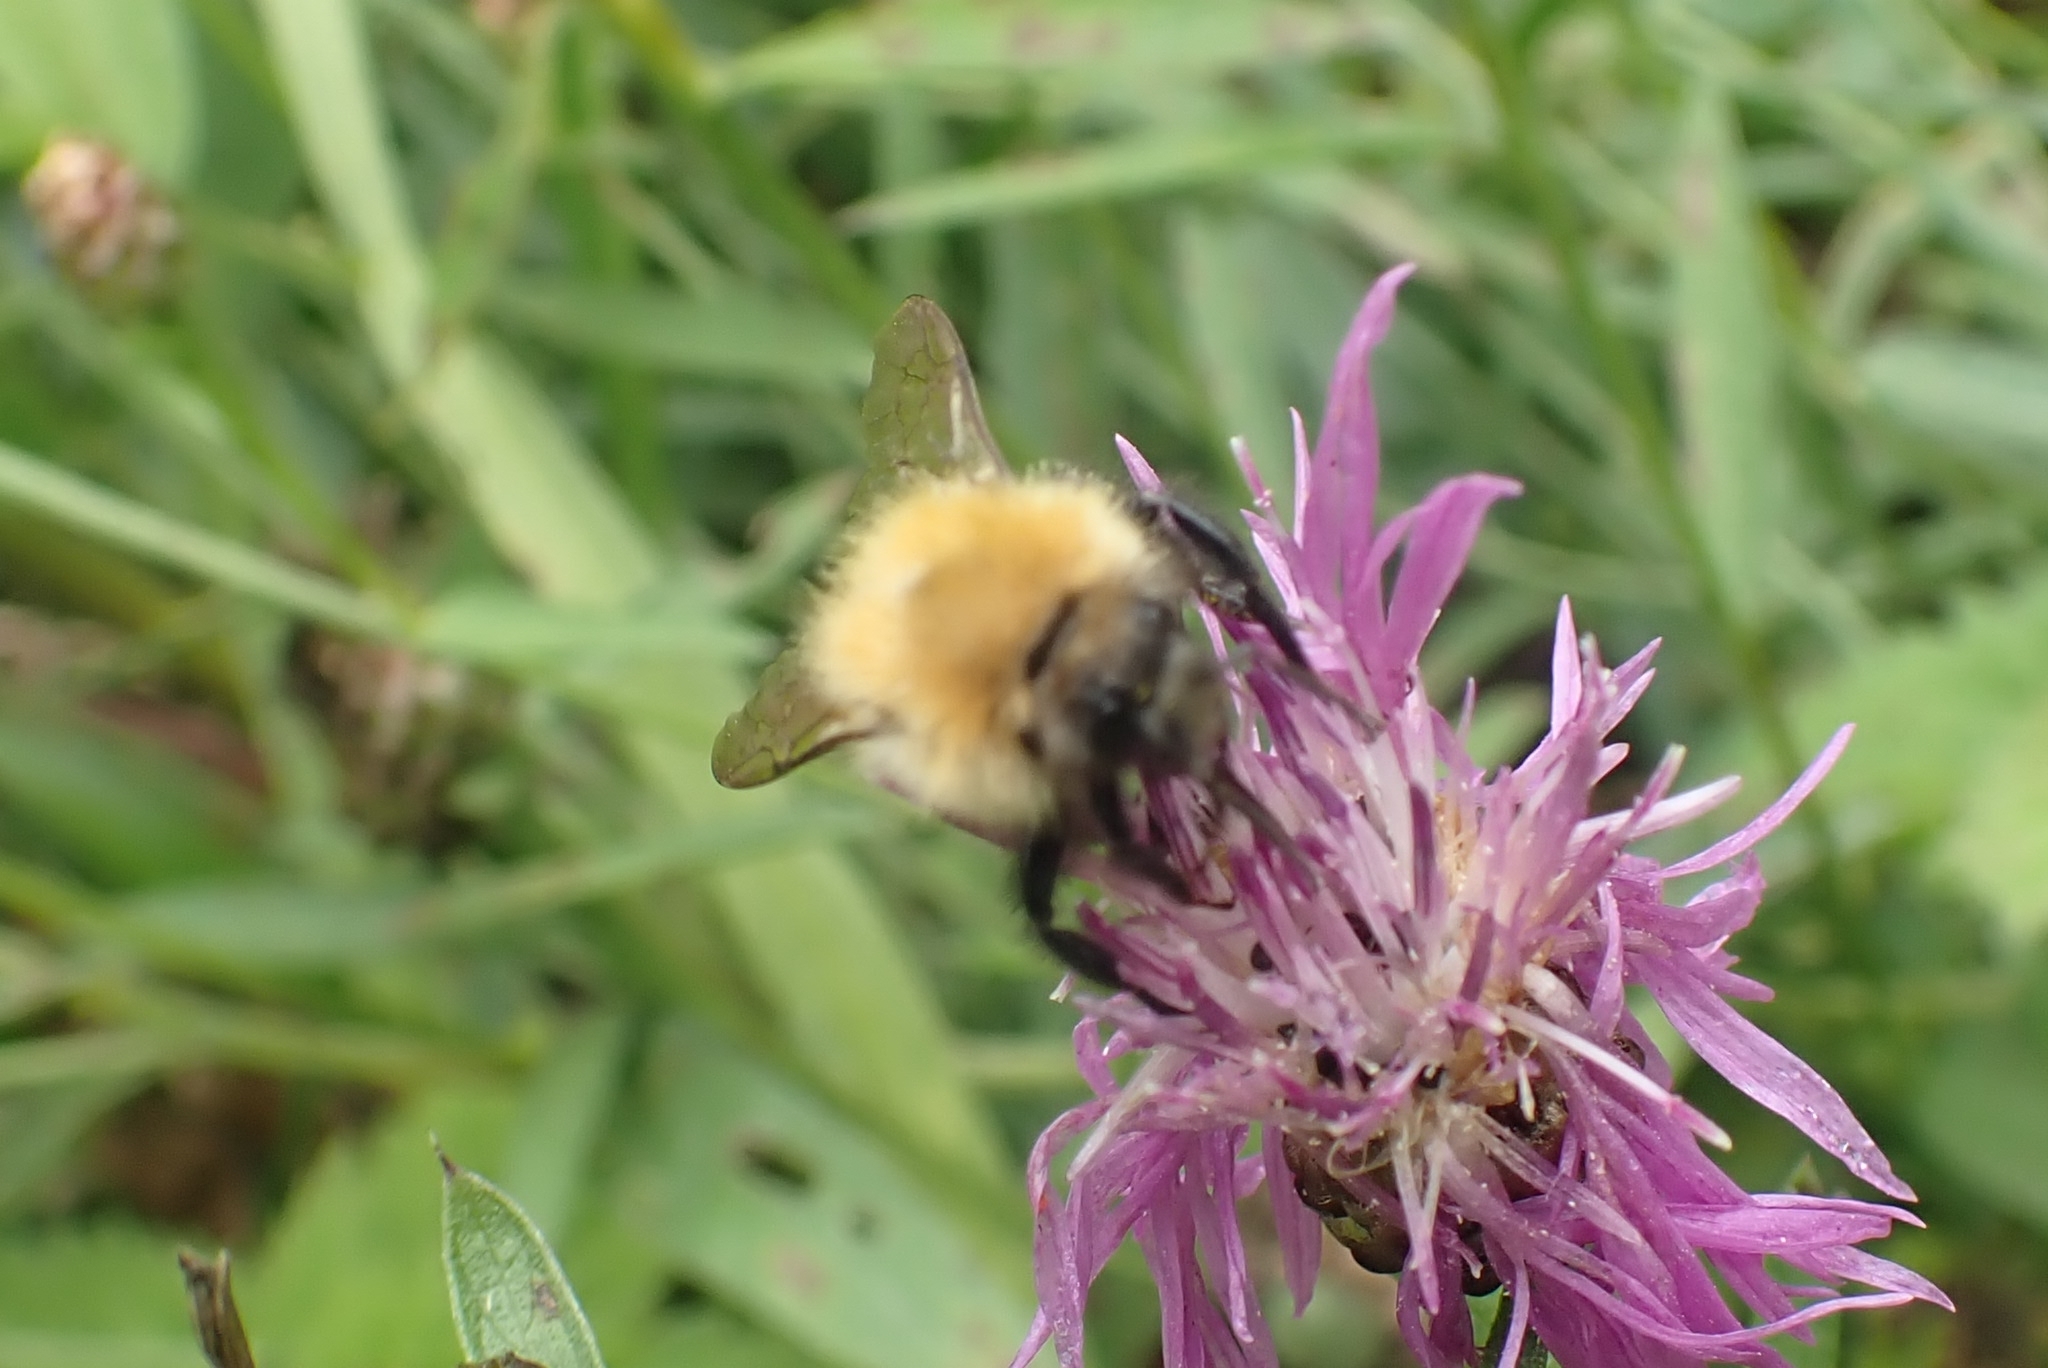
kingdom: Animalia
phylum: Arthropoda
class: Insecta
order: Hymenoptera
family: Apidae
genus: Bombus
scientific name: Bombus
